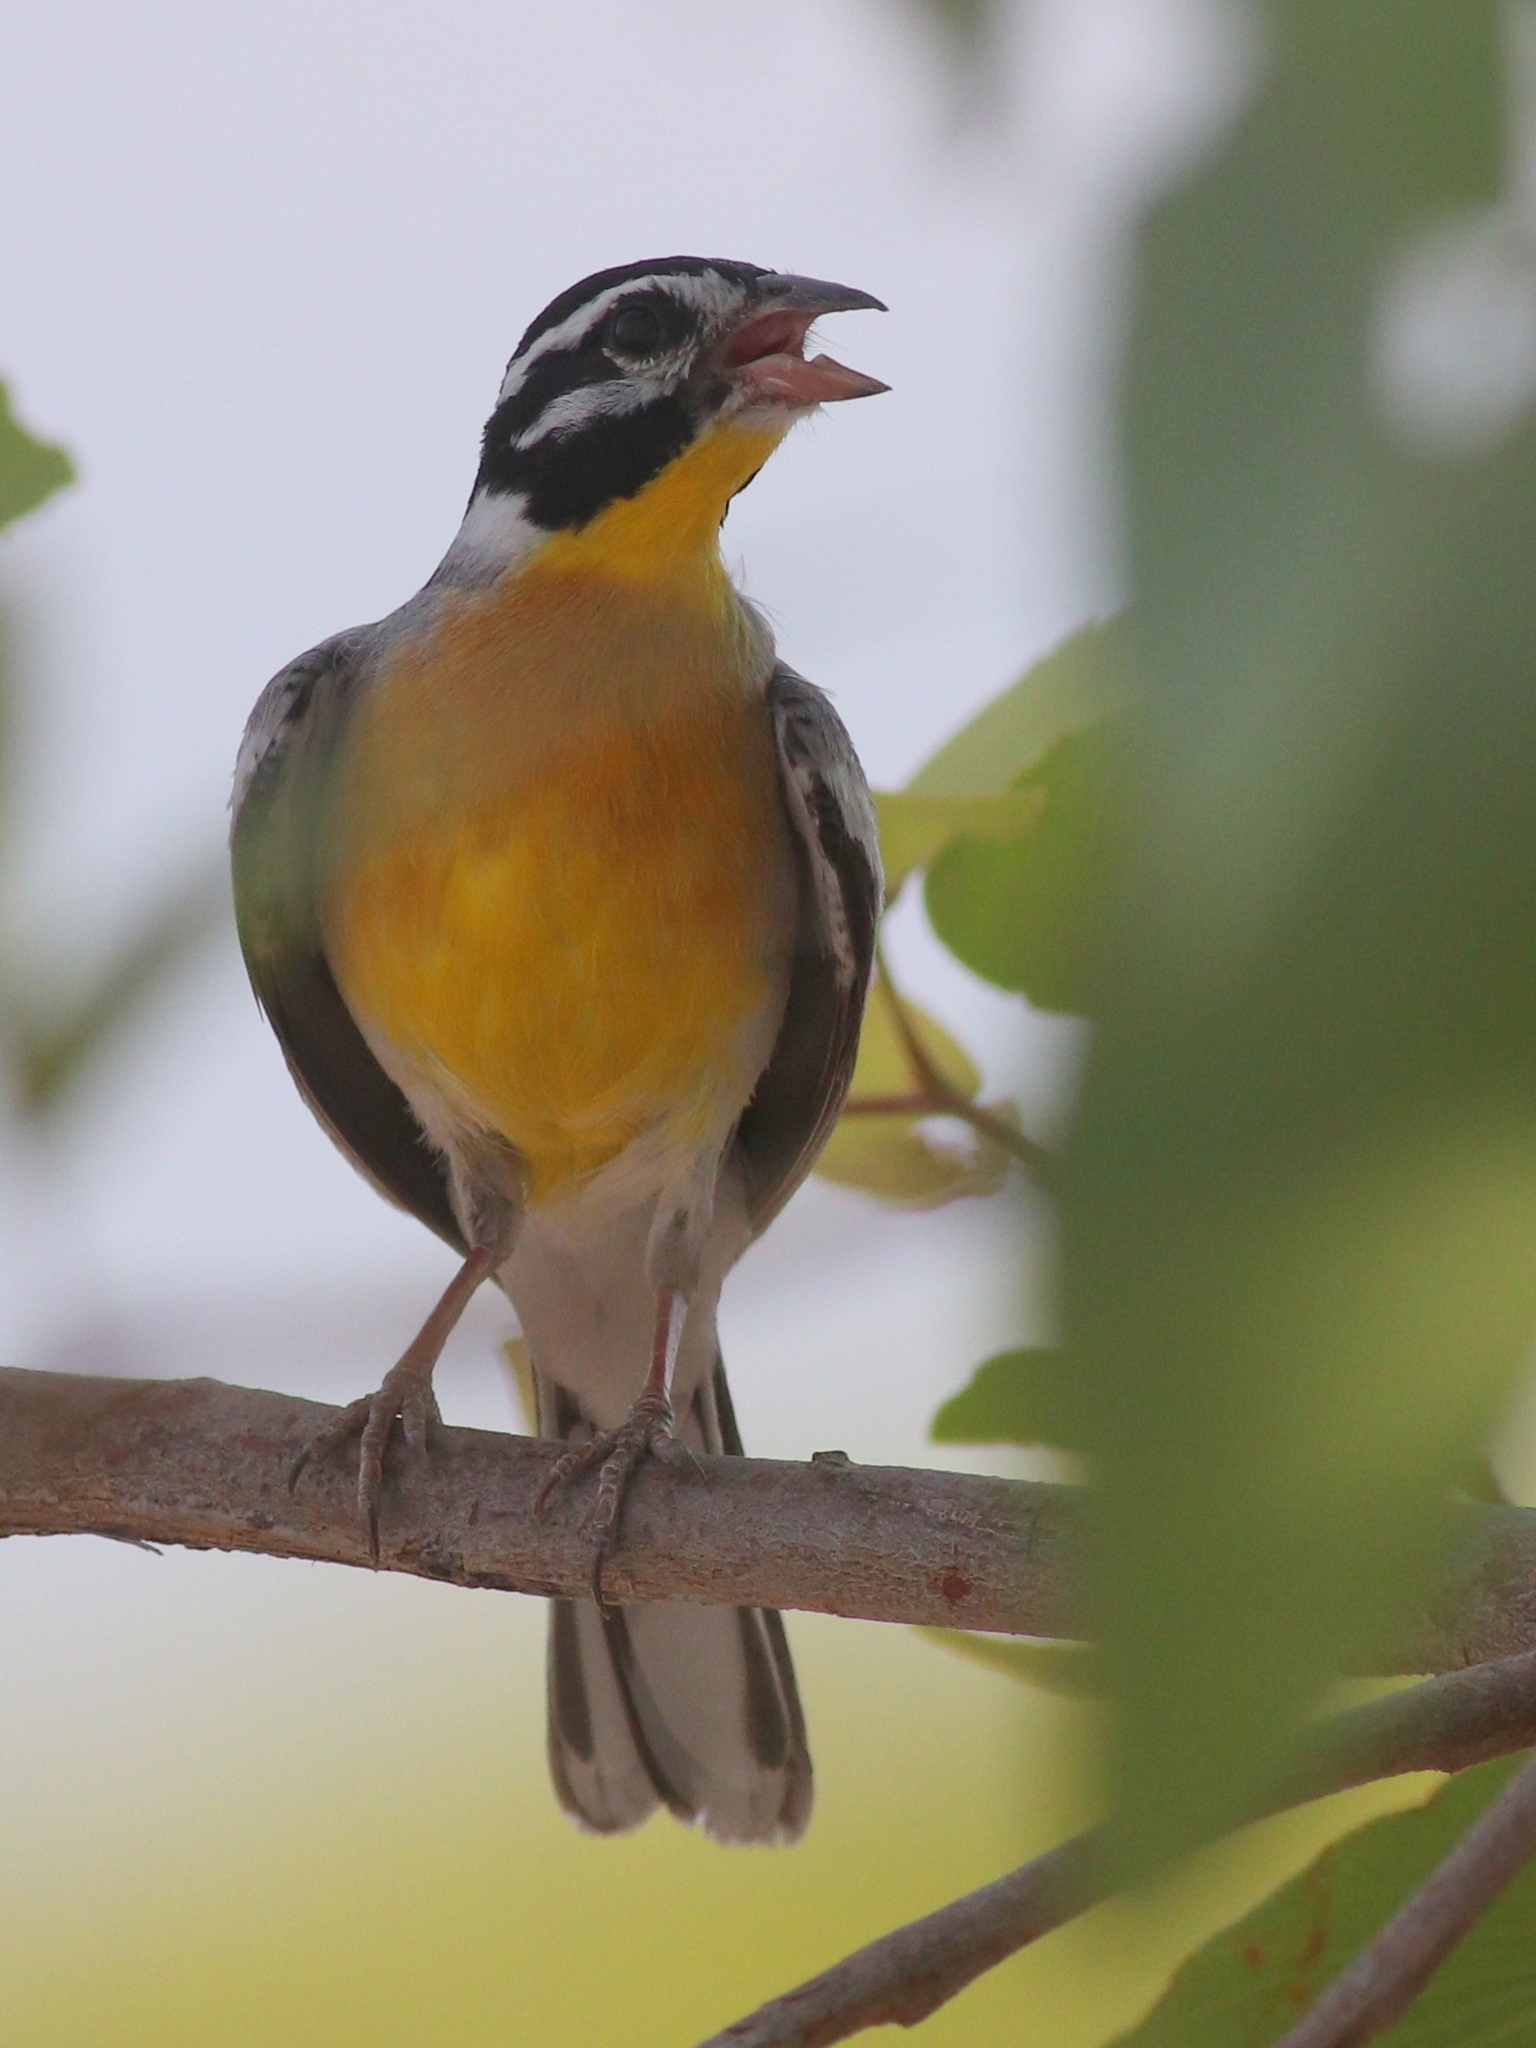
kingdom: Animalia
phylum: Chordata
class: Aves
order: Passeriformes
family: Emberizidae
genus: Emberiza
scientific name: Emberiza flaviventris
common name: Golden-breasted bunting
